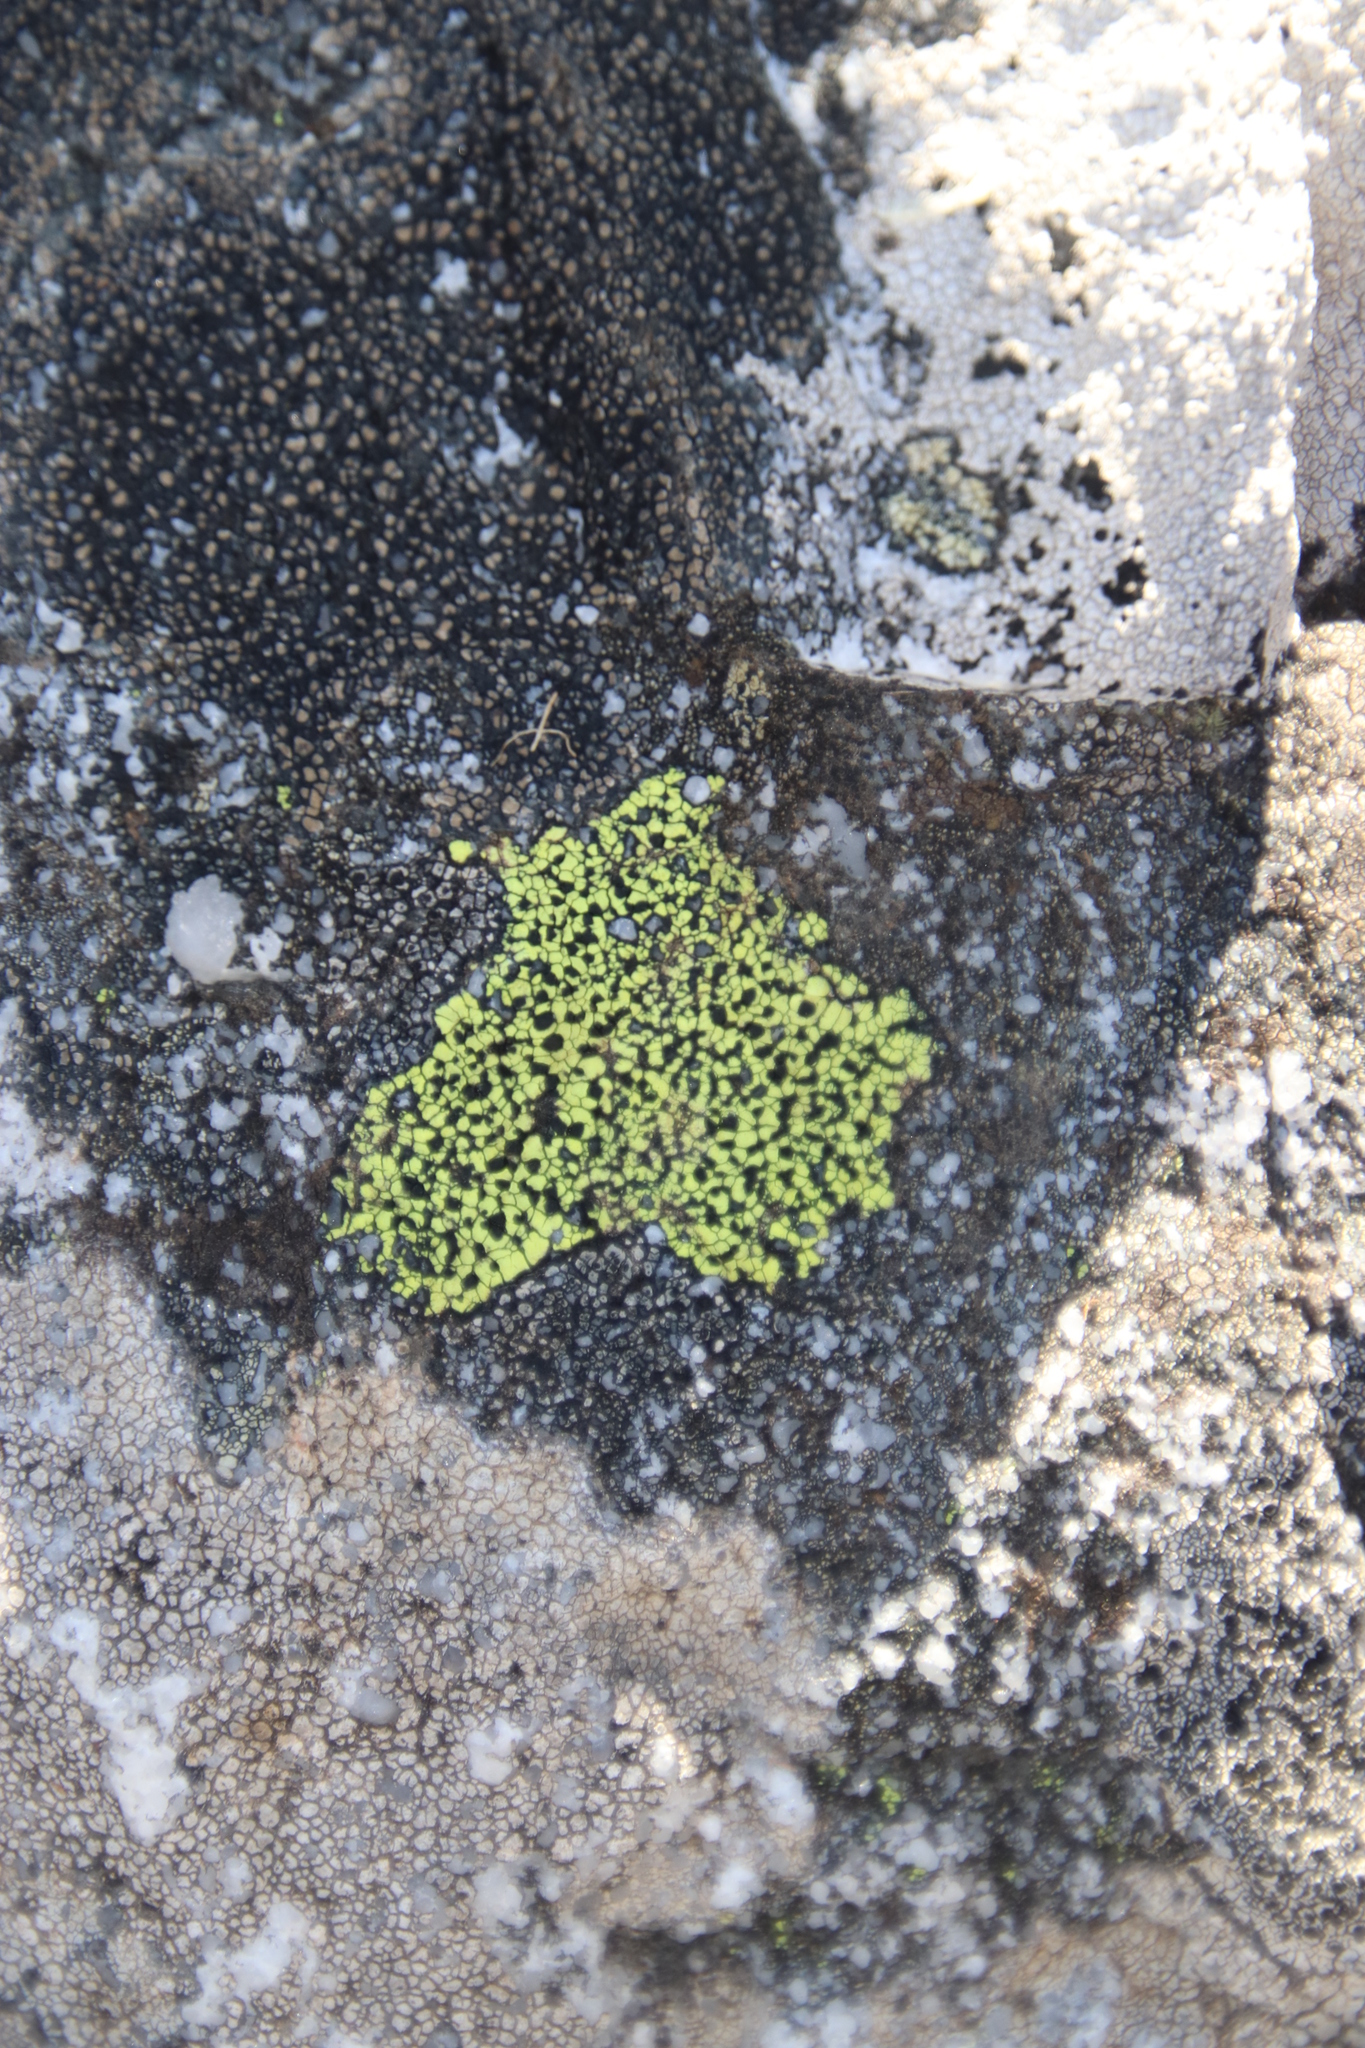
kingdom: Fungi
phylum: Ascomycota
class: Lecanoromycetes
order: Rhizocarpales
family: Rhizocarpaceae
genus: Rhizocarpon
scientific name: Rhizocarpon lecanorinum
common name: Crescent map lichen
